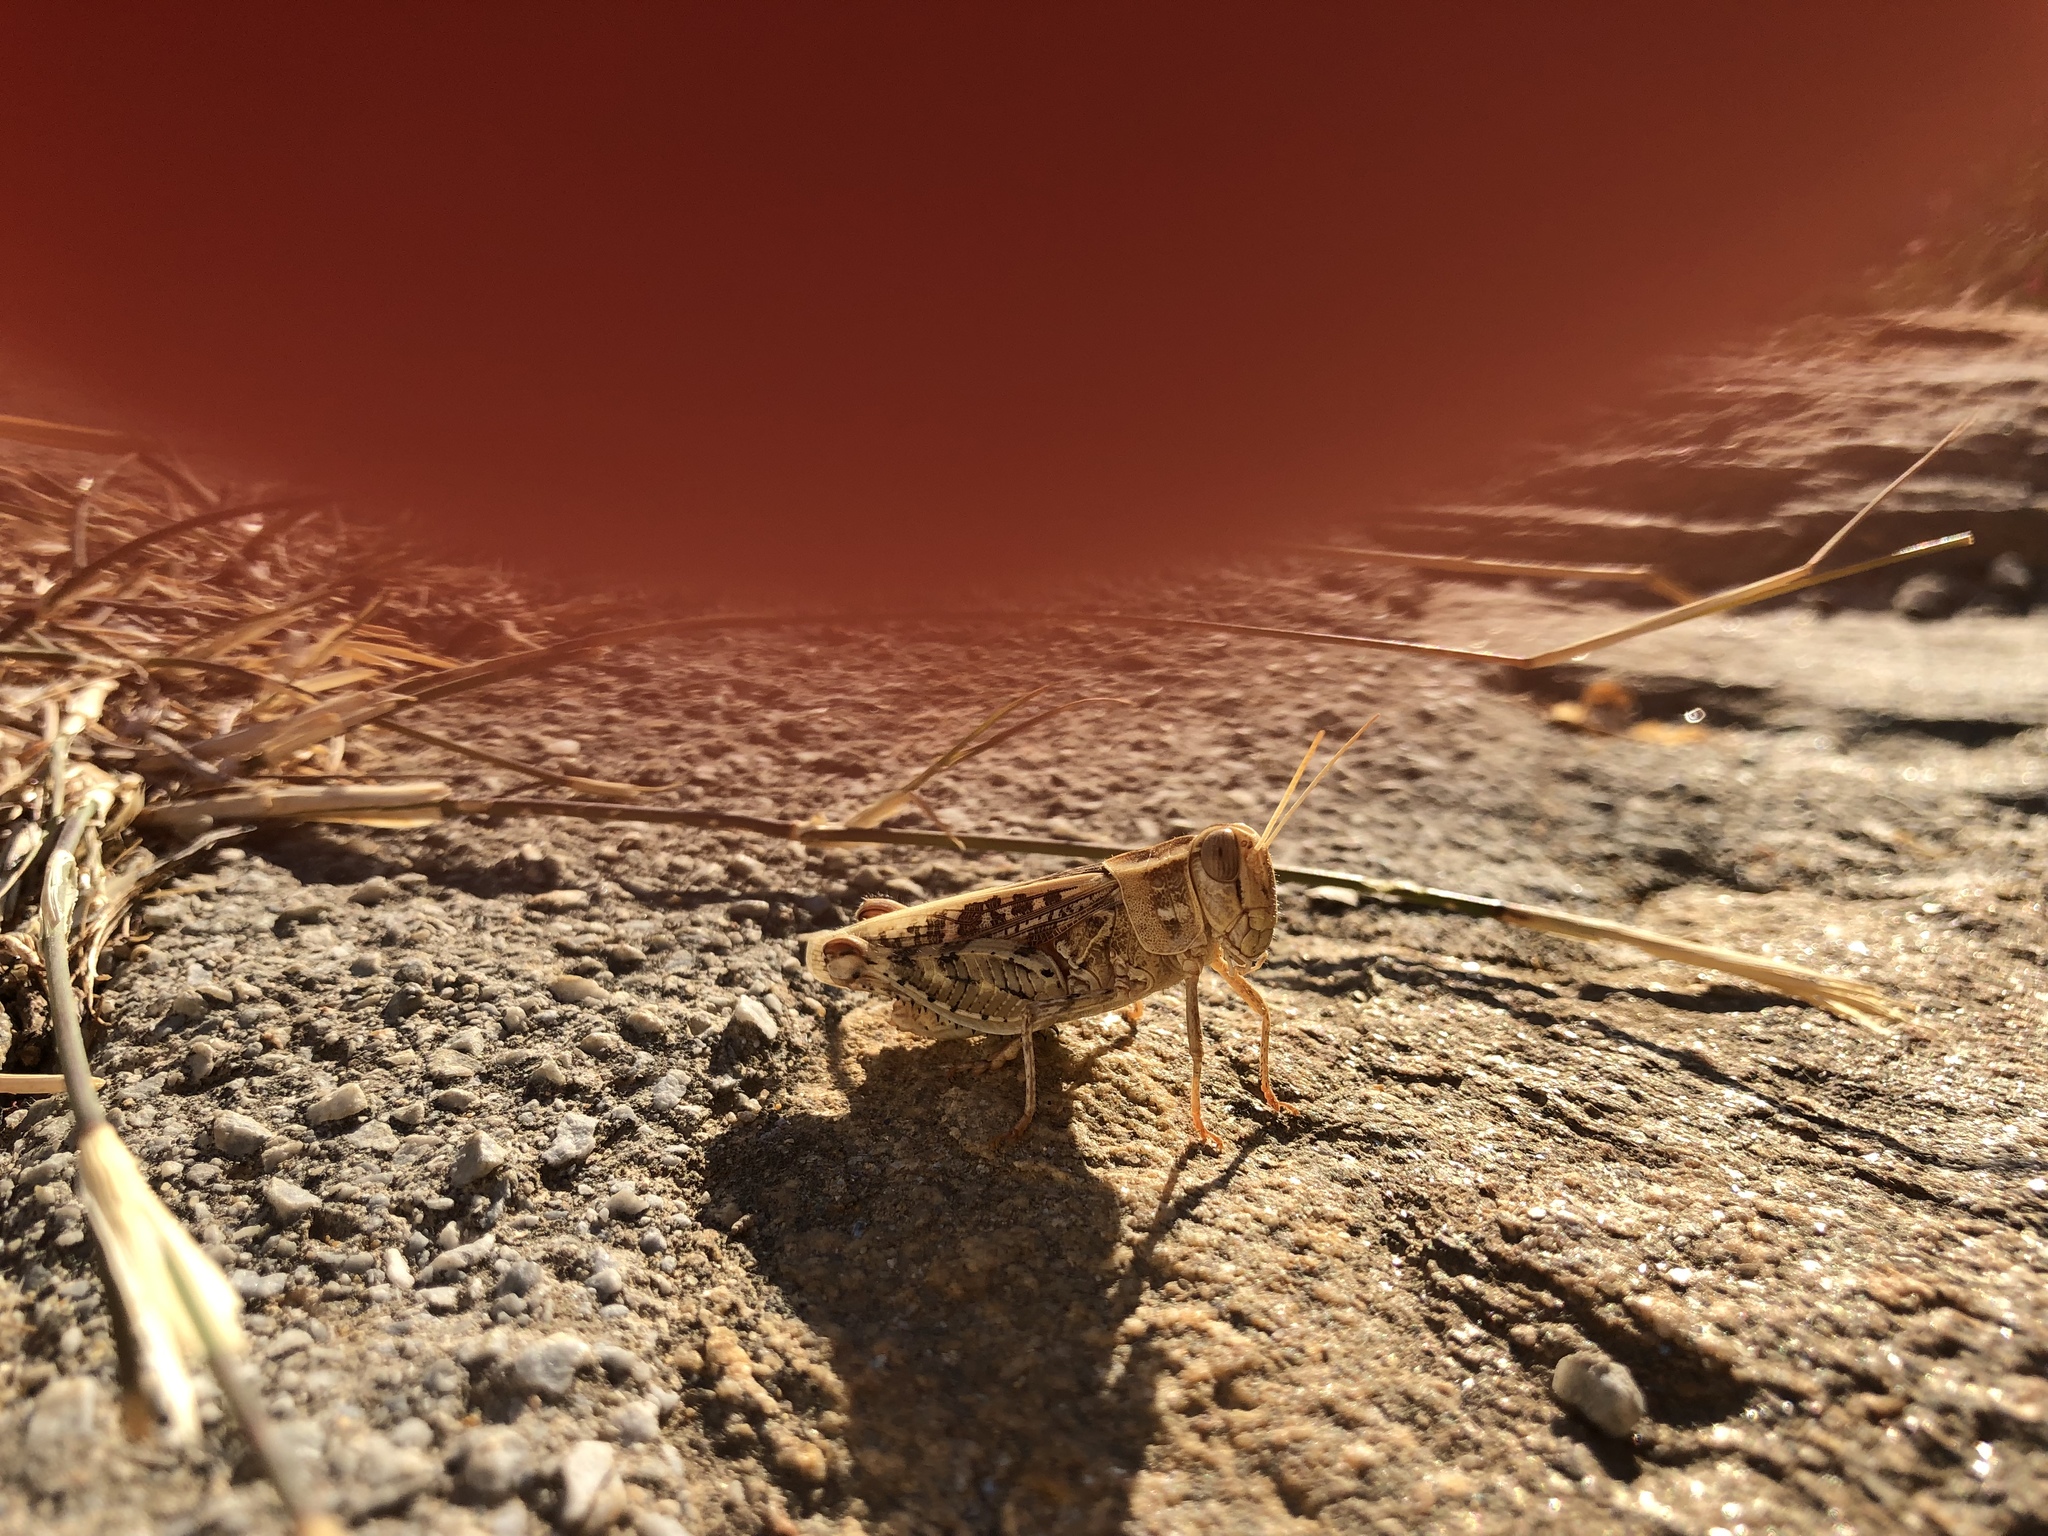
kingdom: Animalia
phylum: Arthropoda
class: Insecta
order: Orthoptera
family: Acrididae
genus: Calliptamus
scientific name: Calliptamus
